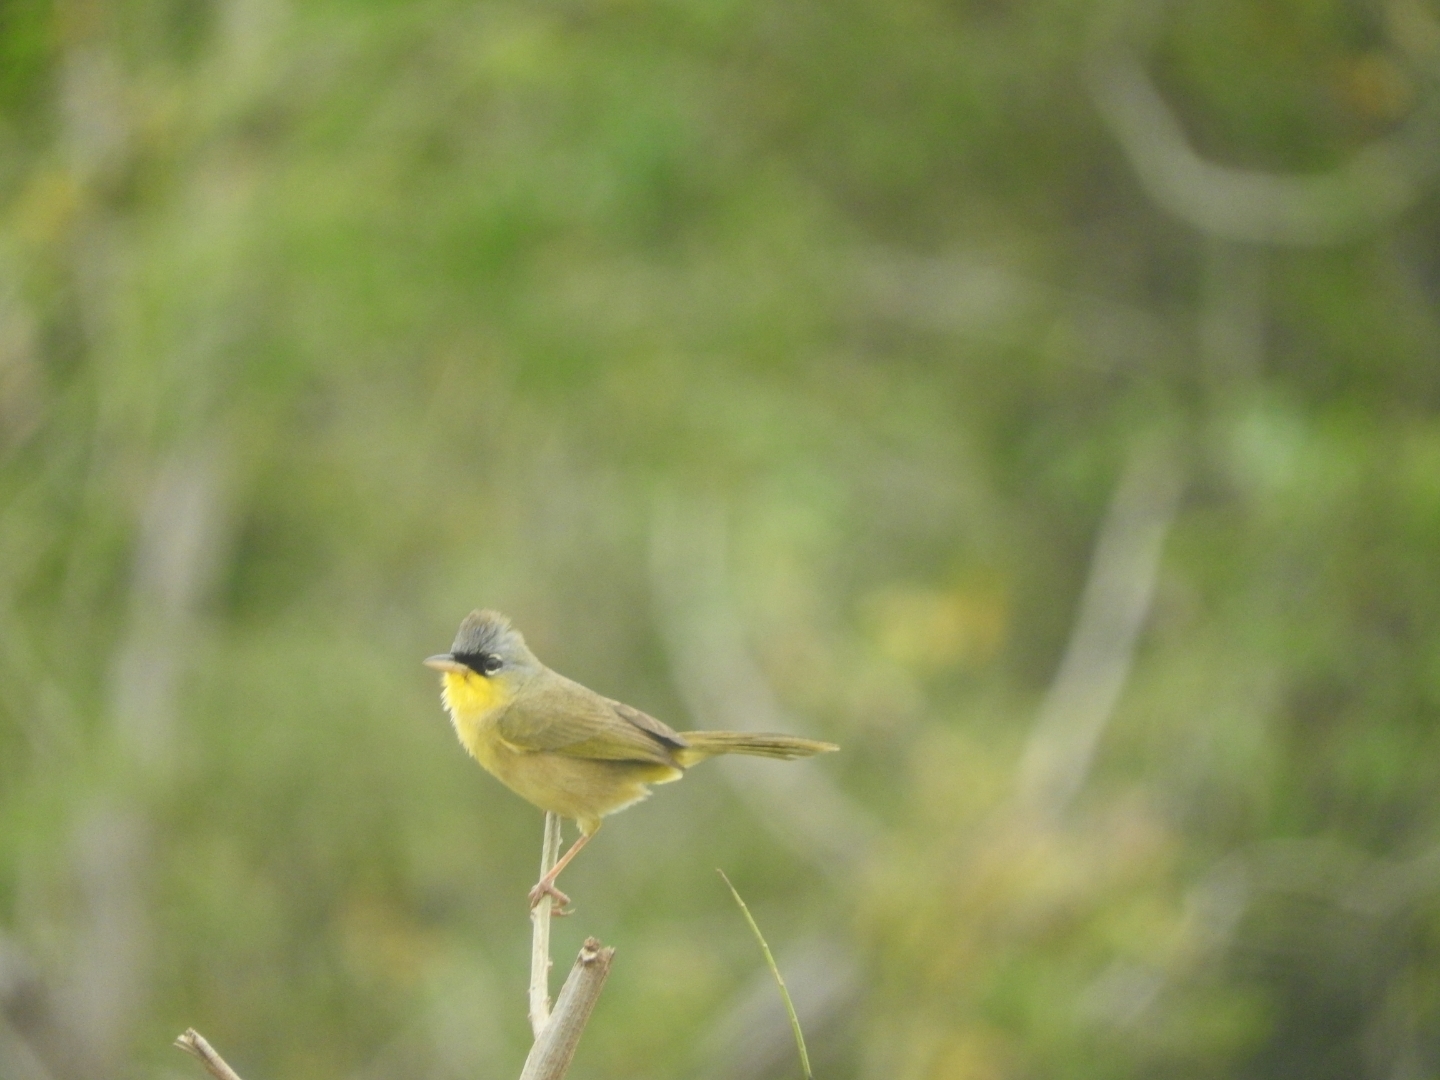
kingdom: Animalia
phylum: Chordata
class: Aves
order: Passeriformes
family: Parulidae
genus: Geothlypis
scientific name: Geothlypis poliocephala
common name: Gray-crowned yellowthroat
